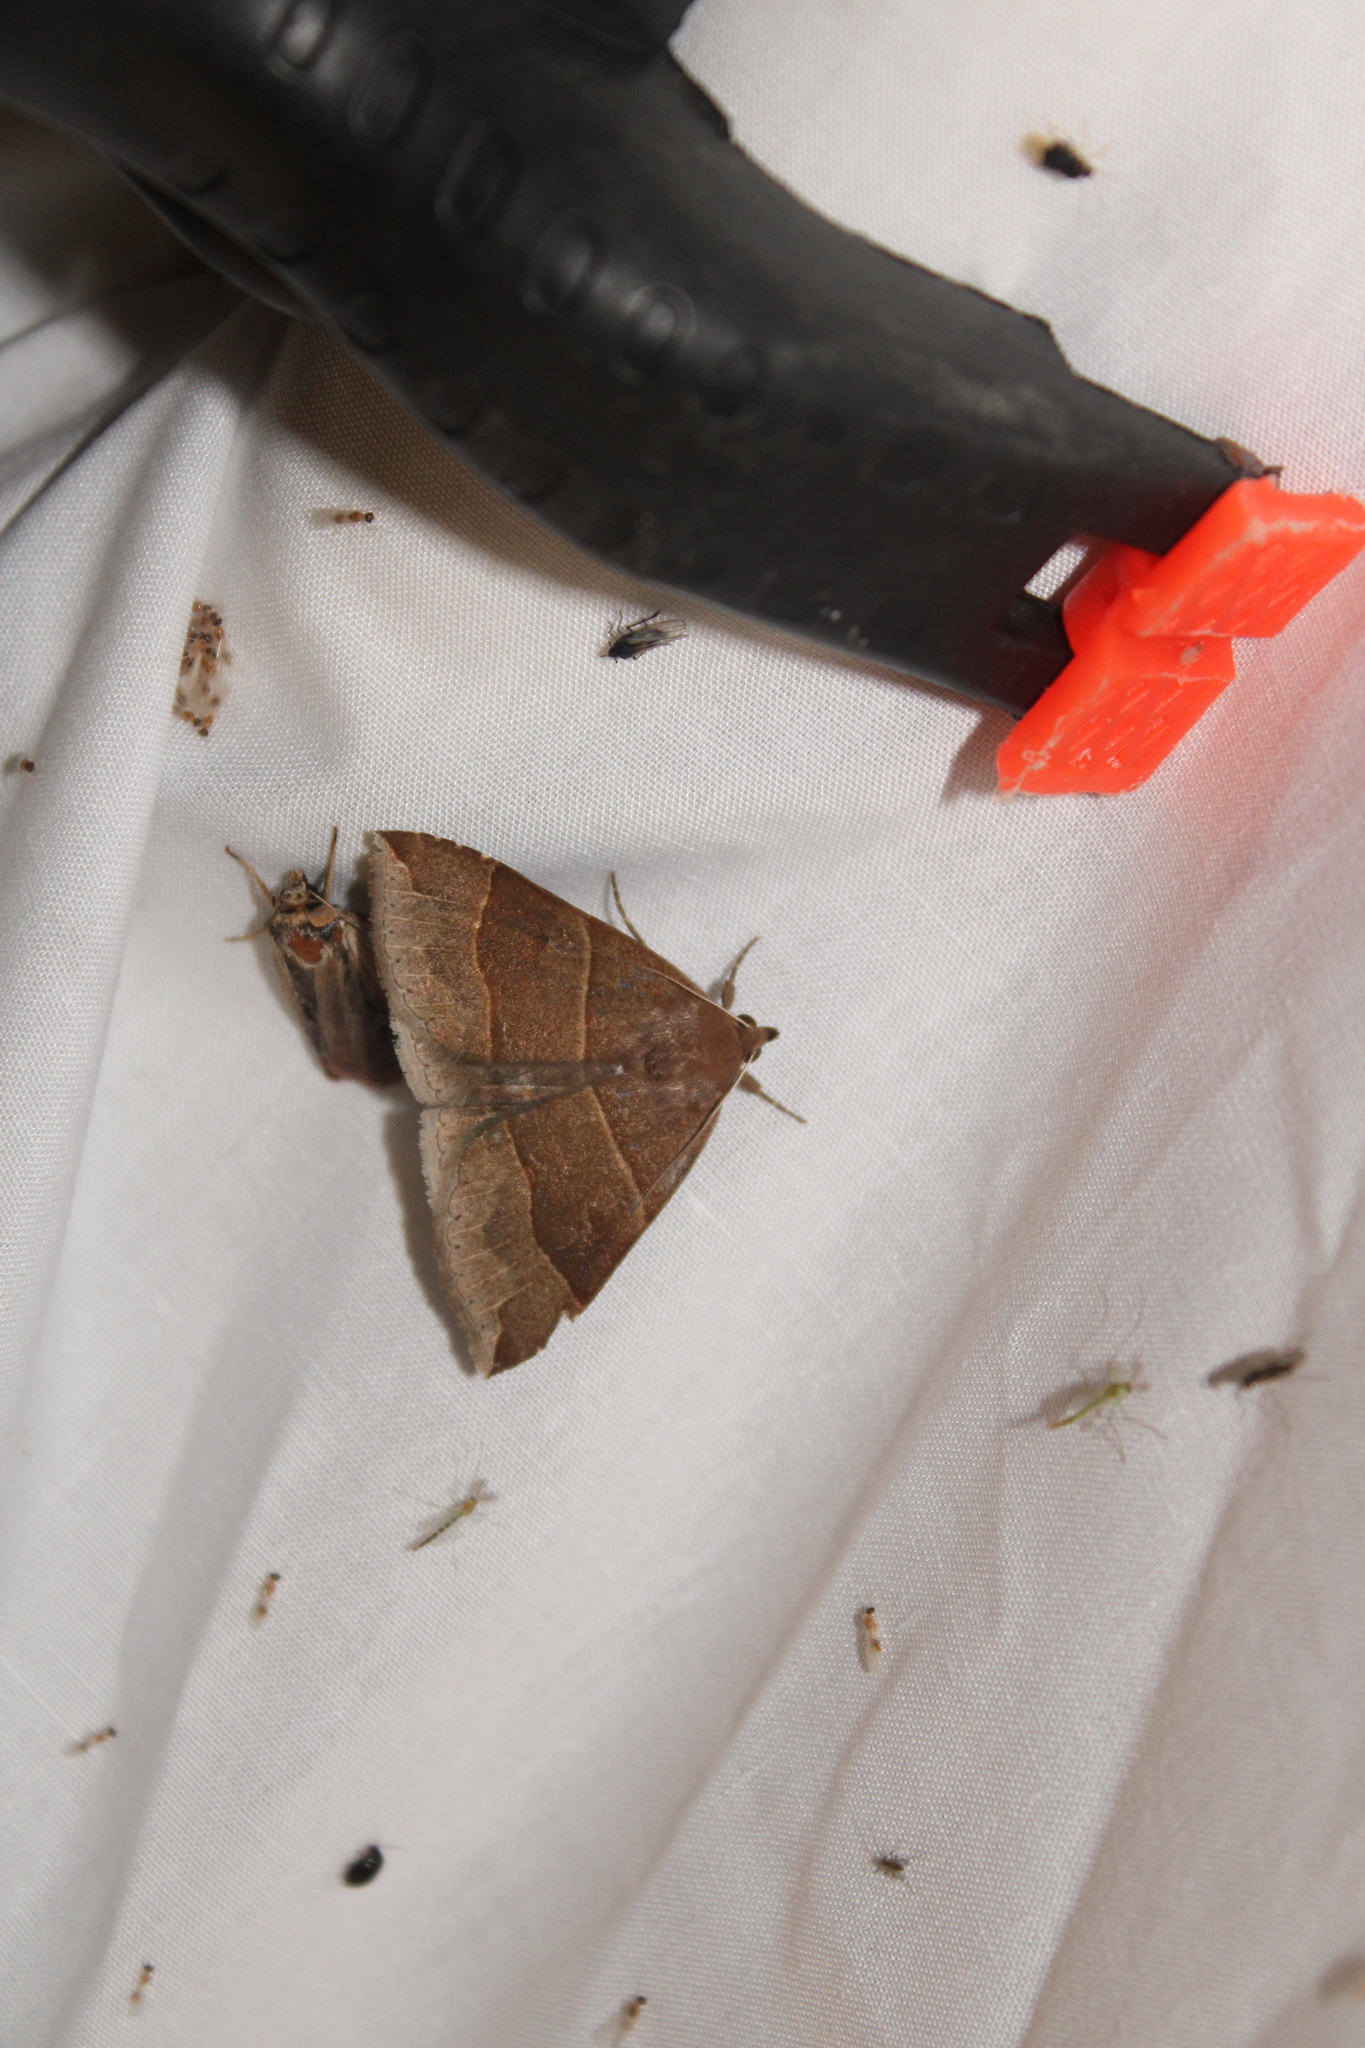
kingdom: Animalia
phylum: Arthropoda
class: Insecta
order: Lepidoptera
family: Erebidae
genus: Parallelia
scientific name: Parallelia bistriaris
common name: Maple looper moth
